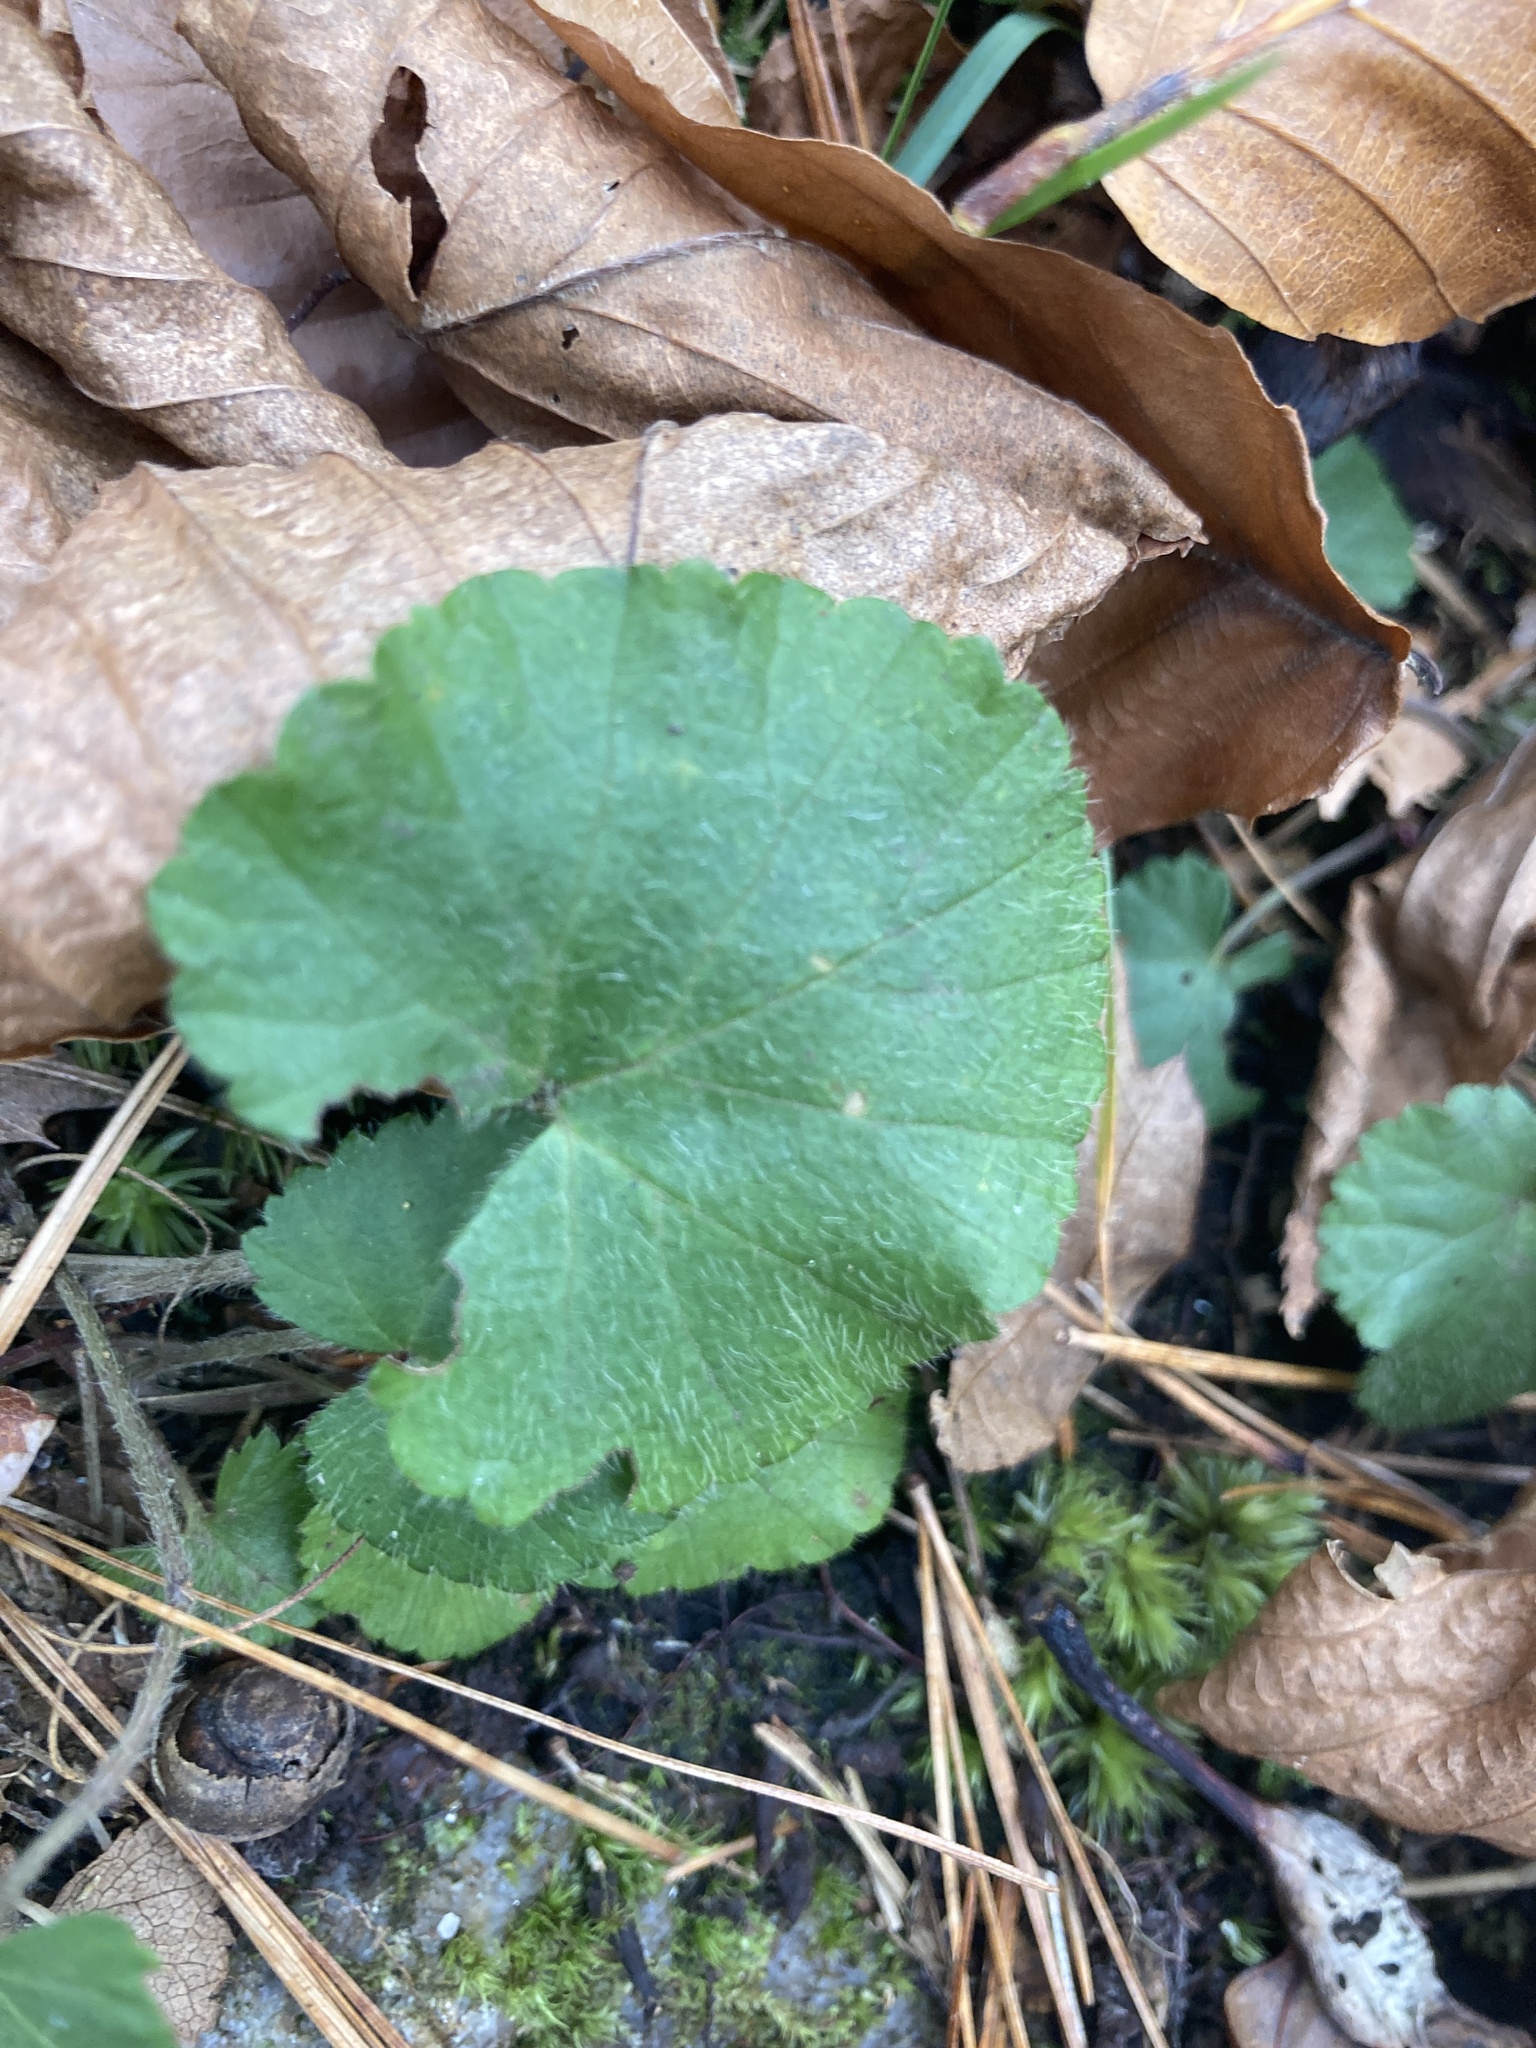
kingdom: Plantae
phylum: Tracheophyta
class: Magnoliopsida
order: Rosales
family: Rosaceae
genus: Dalibarda
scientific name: Dalibarda repens
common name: Dewdrop
